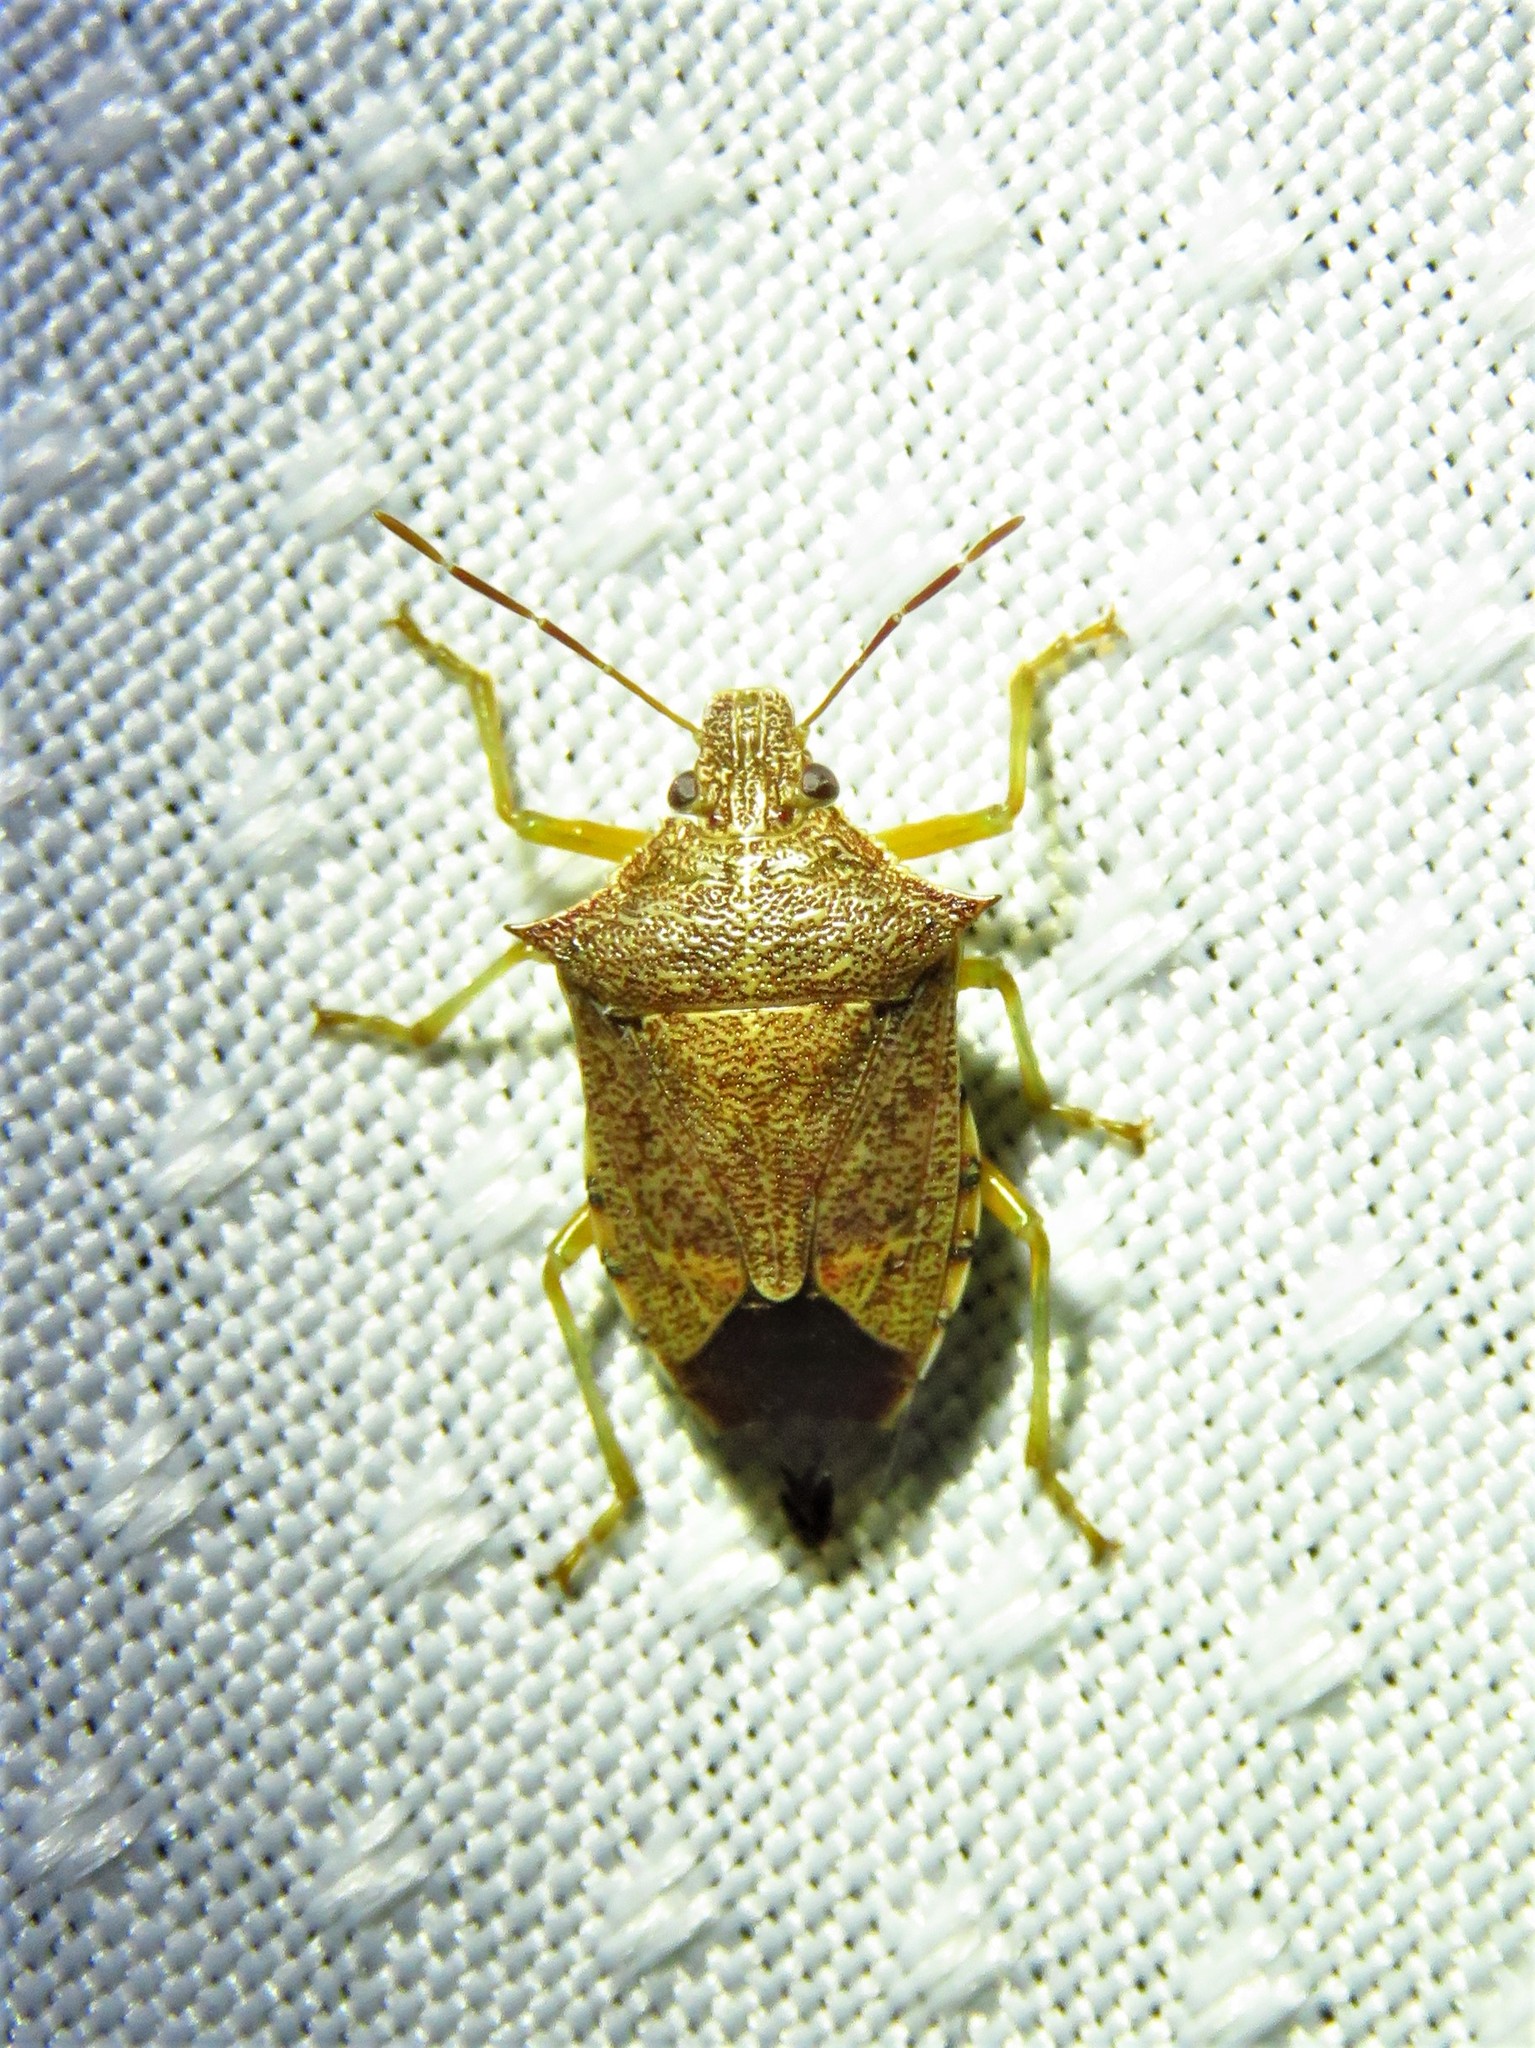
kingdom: Animalia
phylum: Arthropoda
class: Insecta
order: Hemiptera
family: Pentatomidae
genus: Podisus
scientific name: Podisus maculiventris
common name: Spined soldier bug
